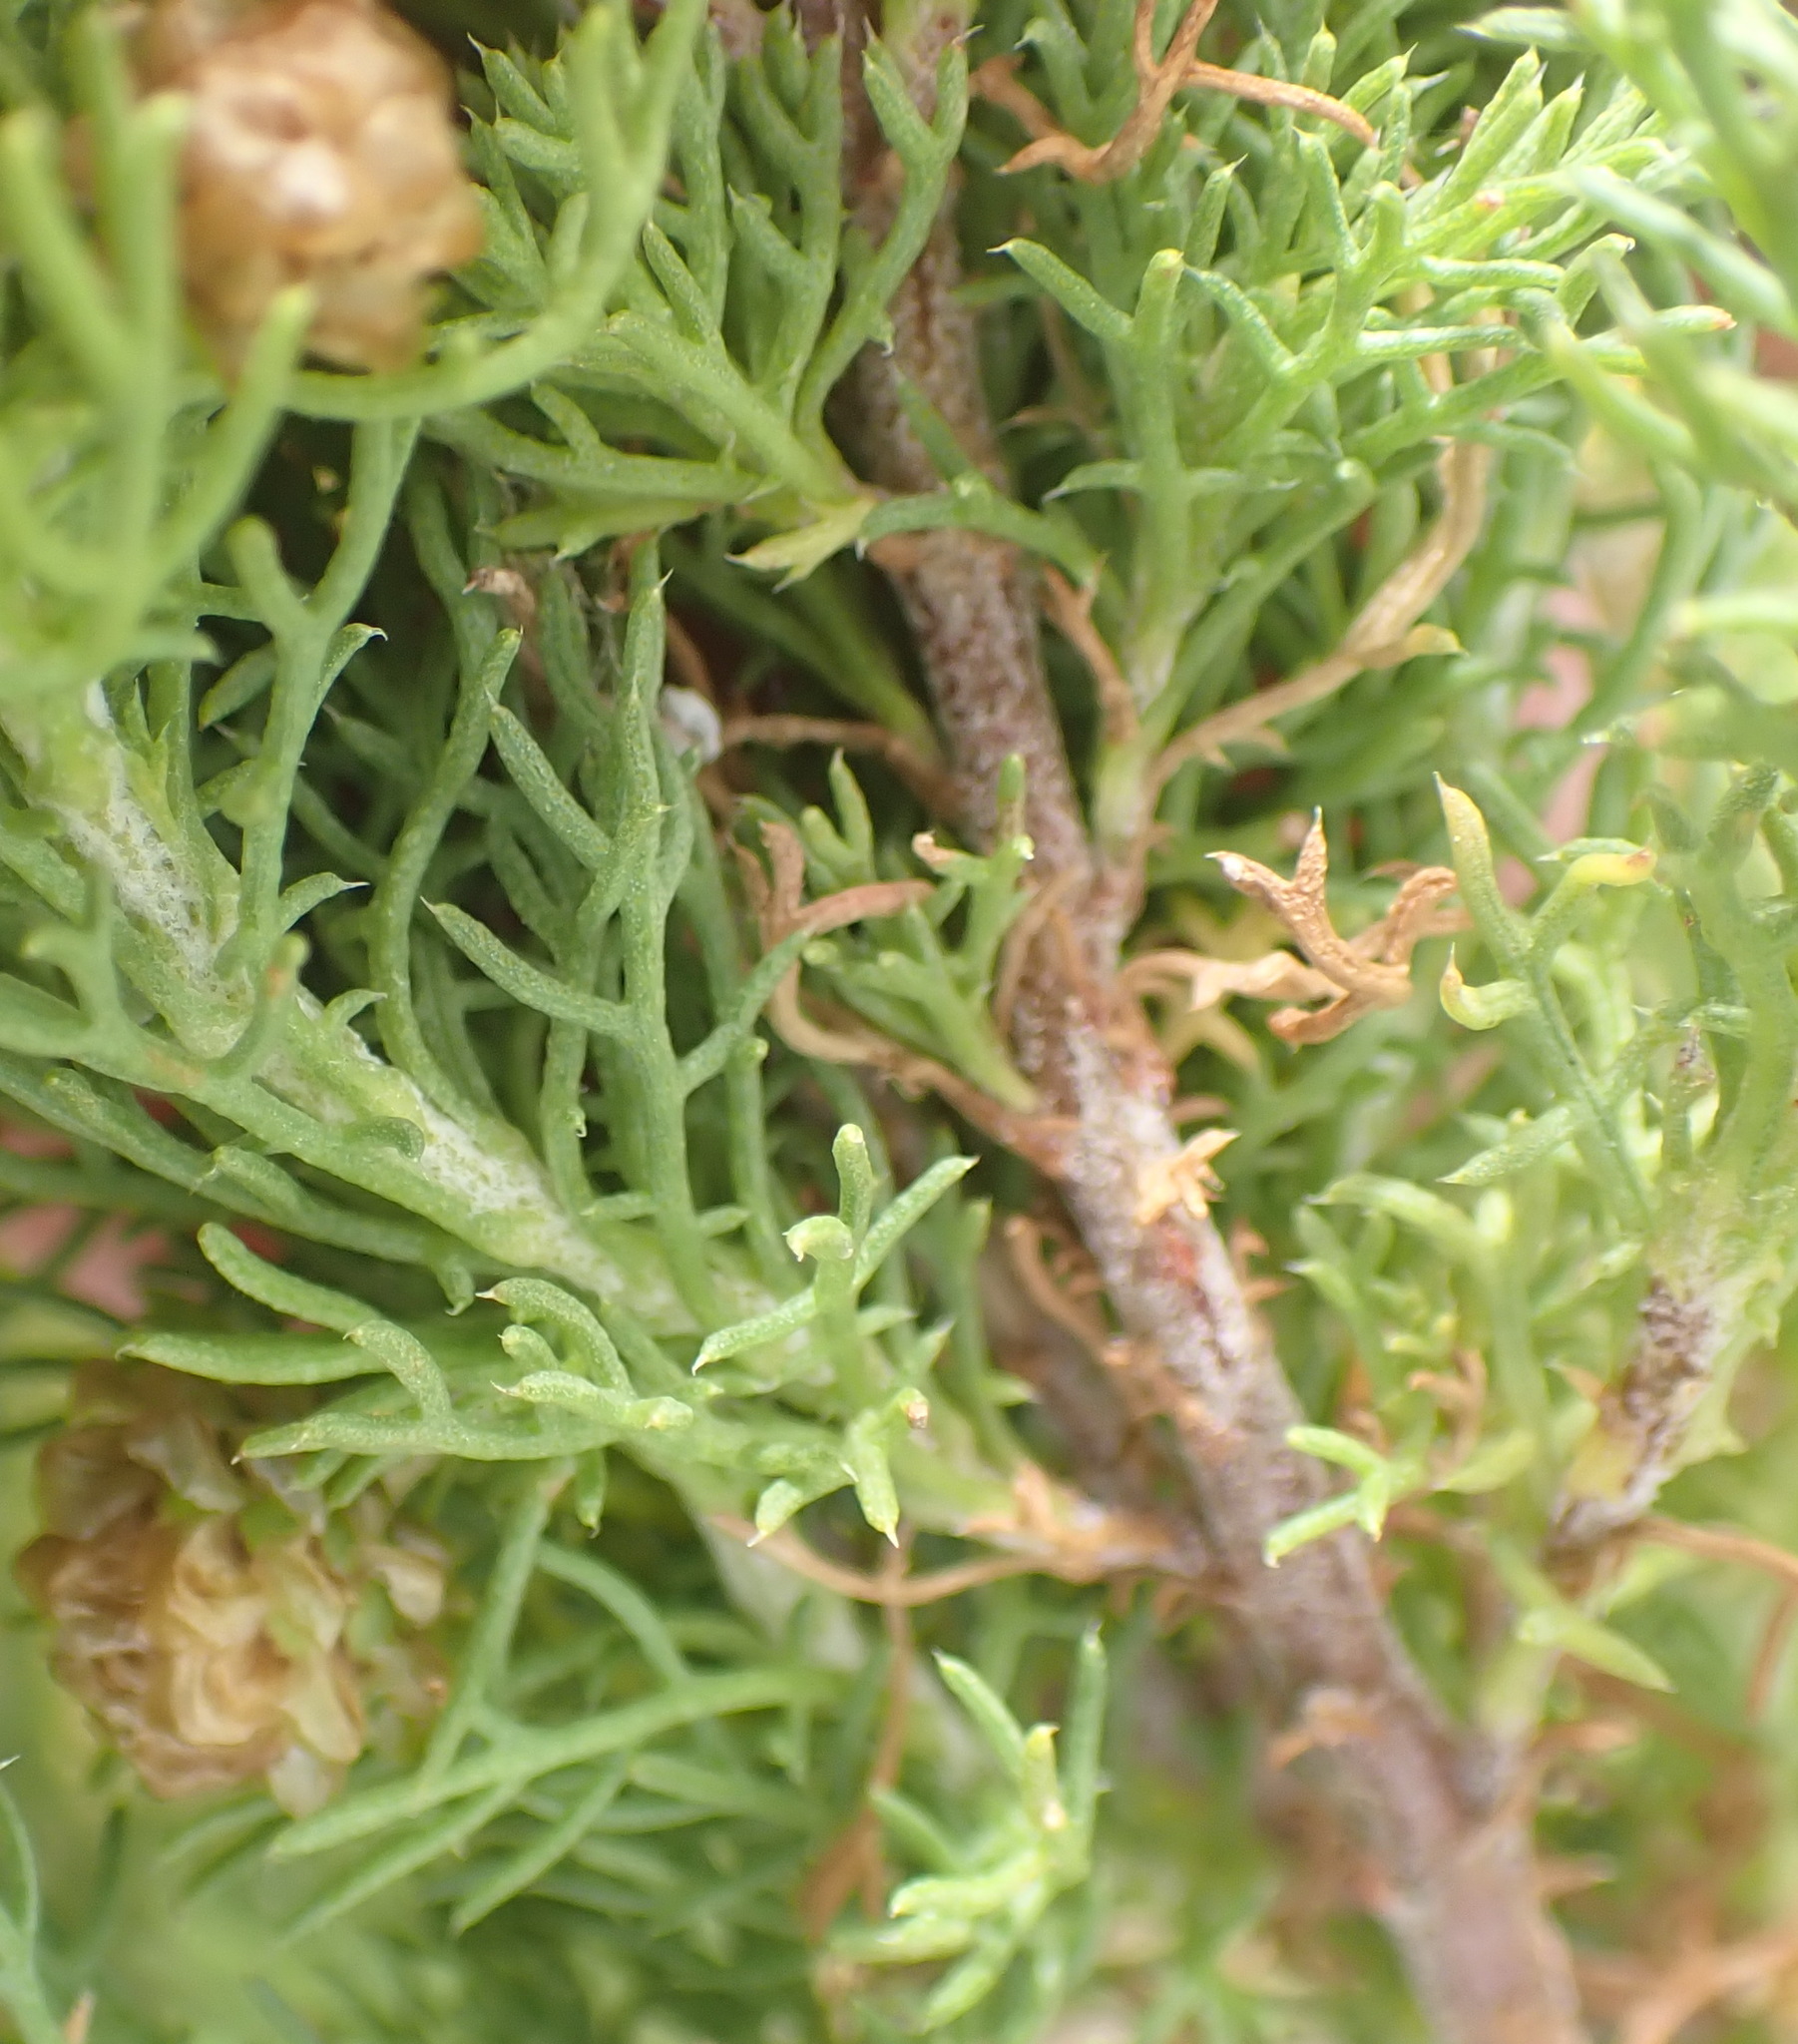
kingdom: Plantae
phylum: Tracheophyta
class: Magnoliopsida
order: Asterales
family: Asteraceae
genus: Ursinia
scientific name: Ursinia scariosa
